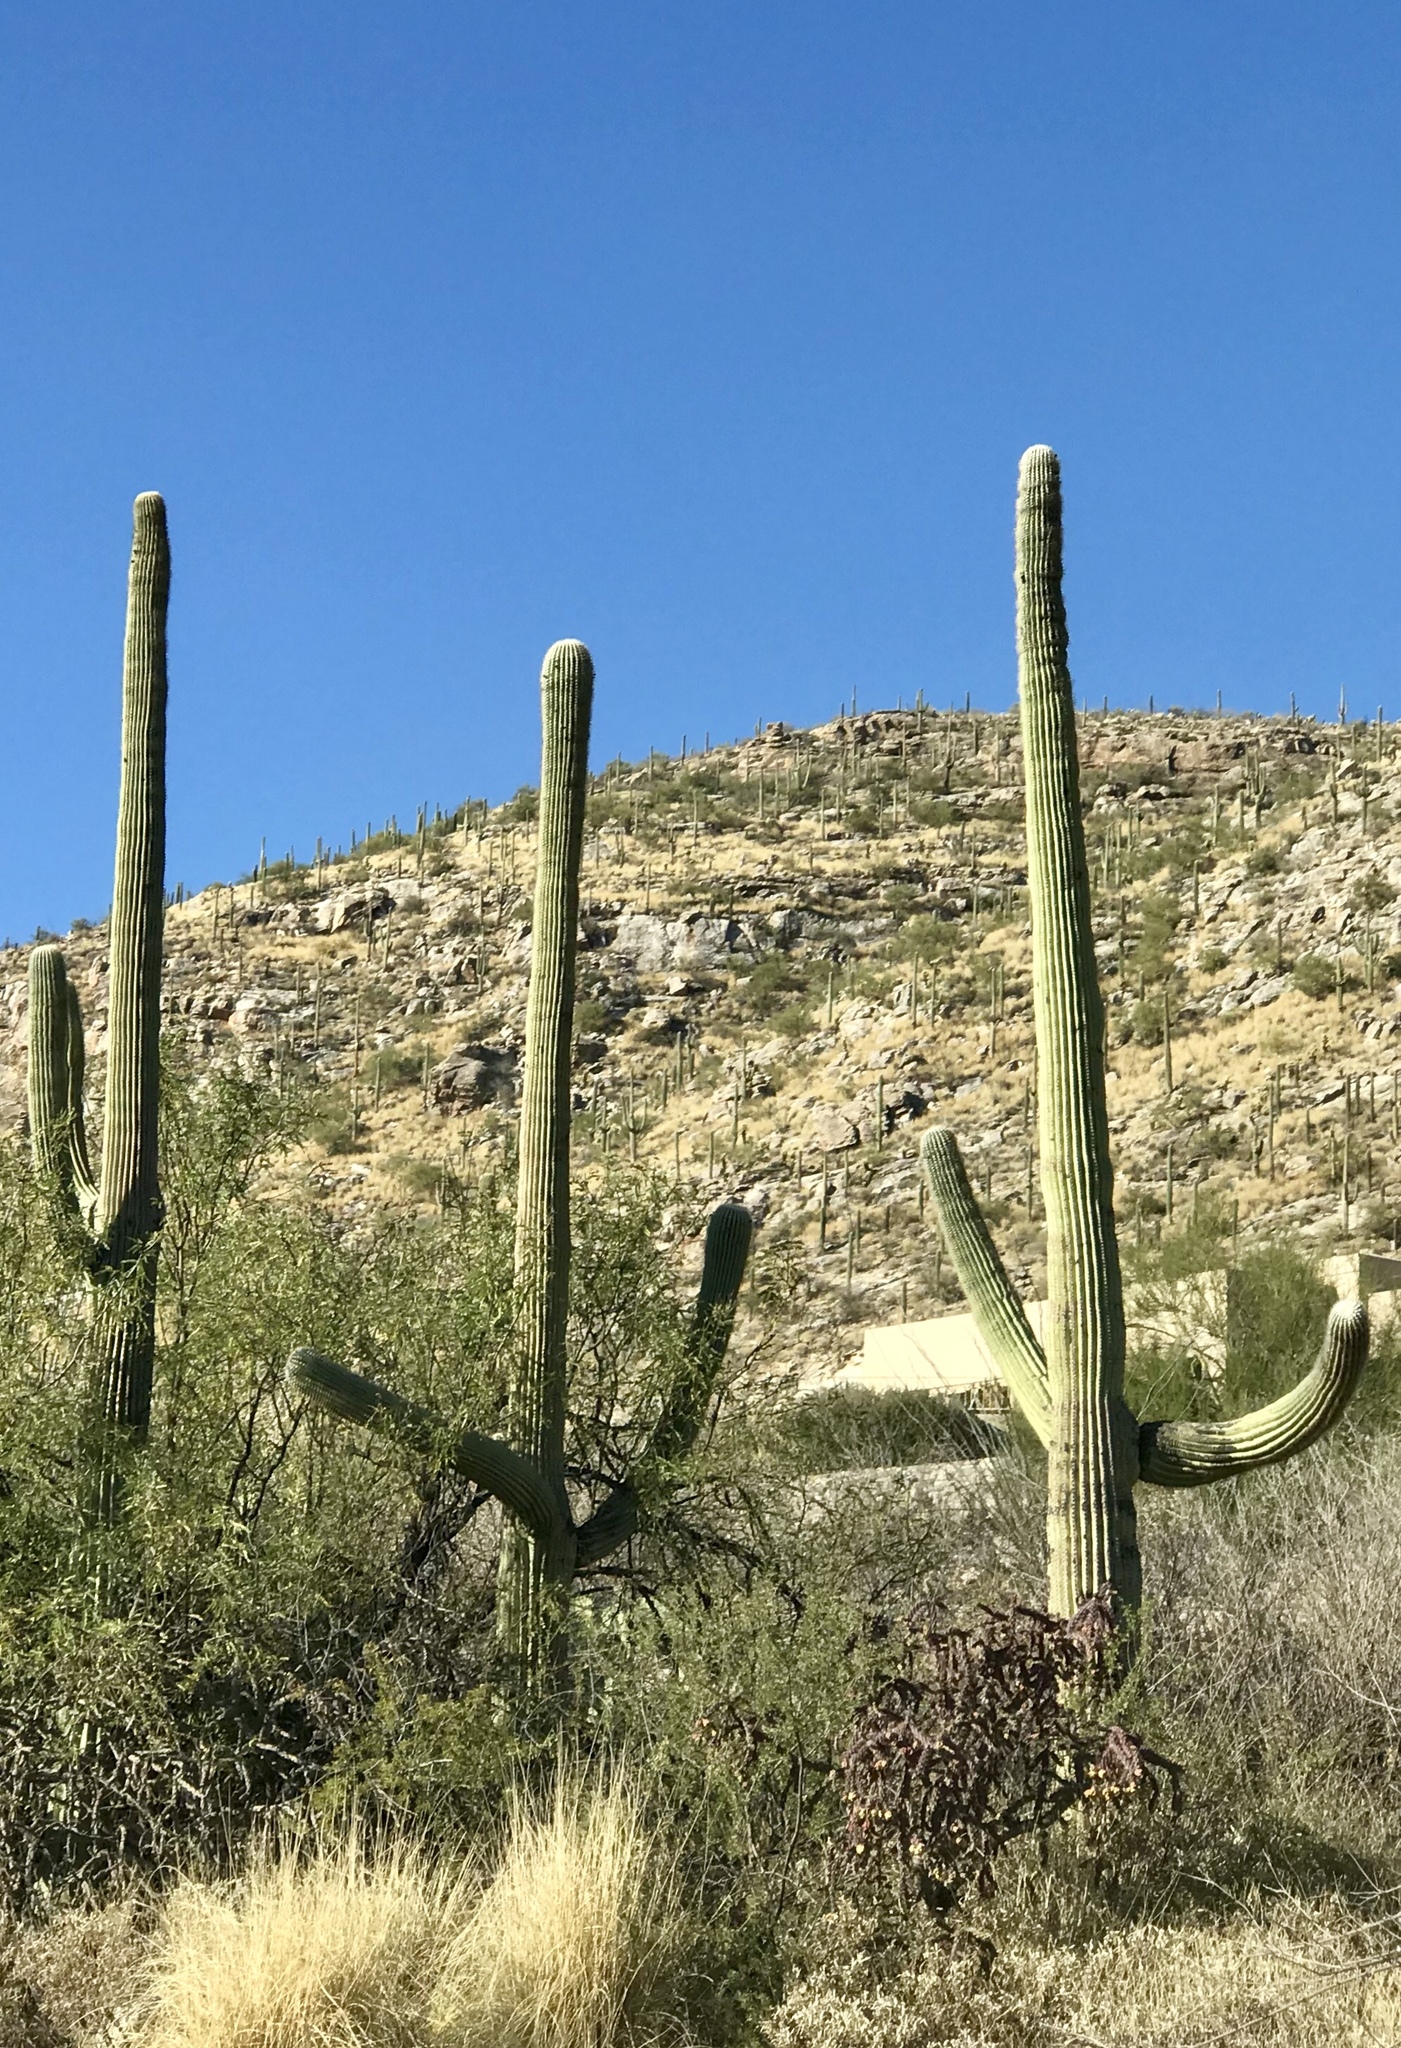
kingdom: Plantae
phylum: Tracheophyta
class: Magnoliopsida
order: Caryophyllales
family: Cactaceae
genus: Carnegiea
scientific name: Carnegiea gigantea
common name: Saguaro
